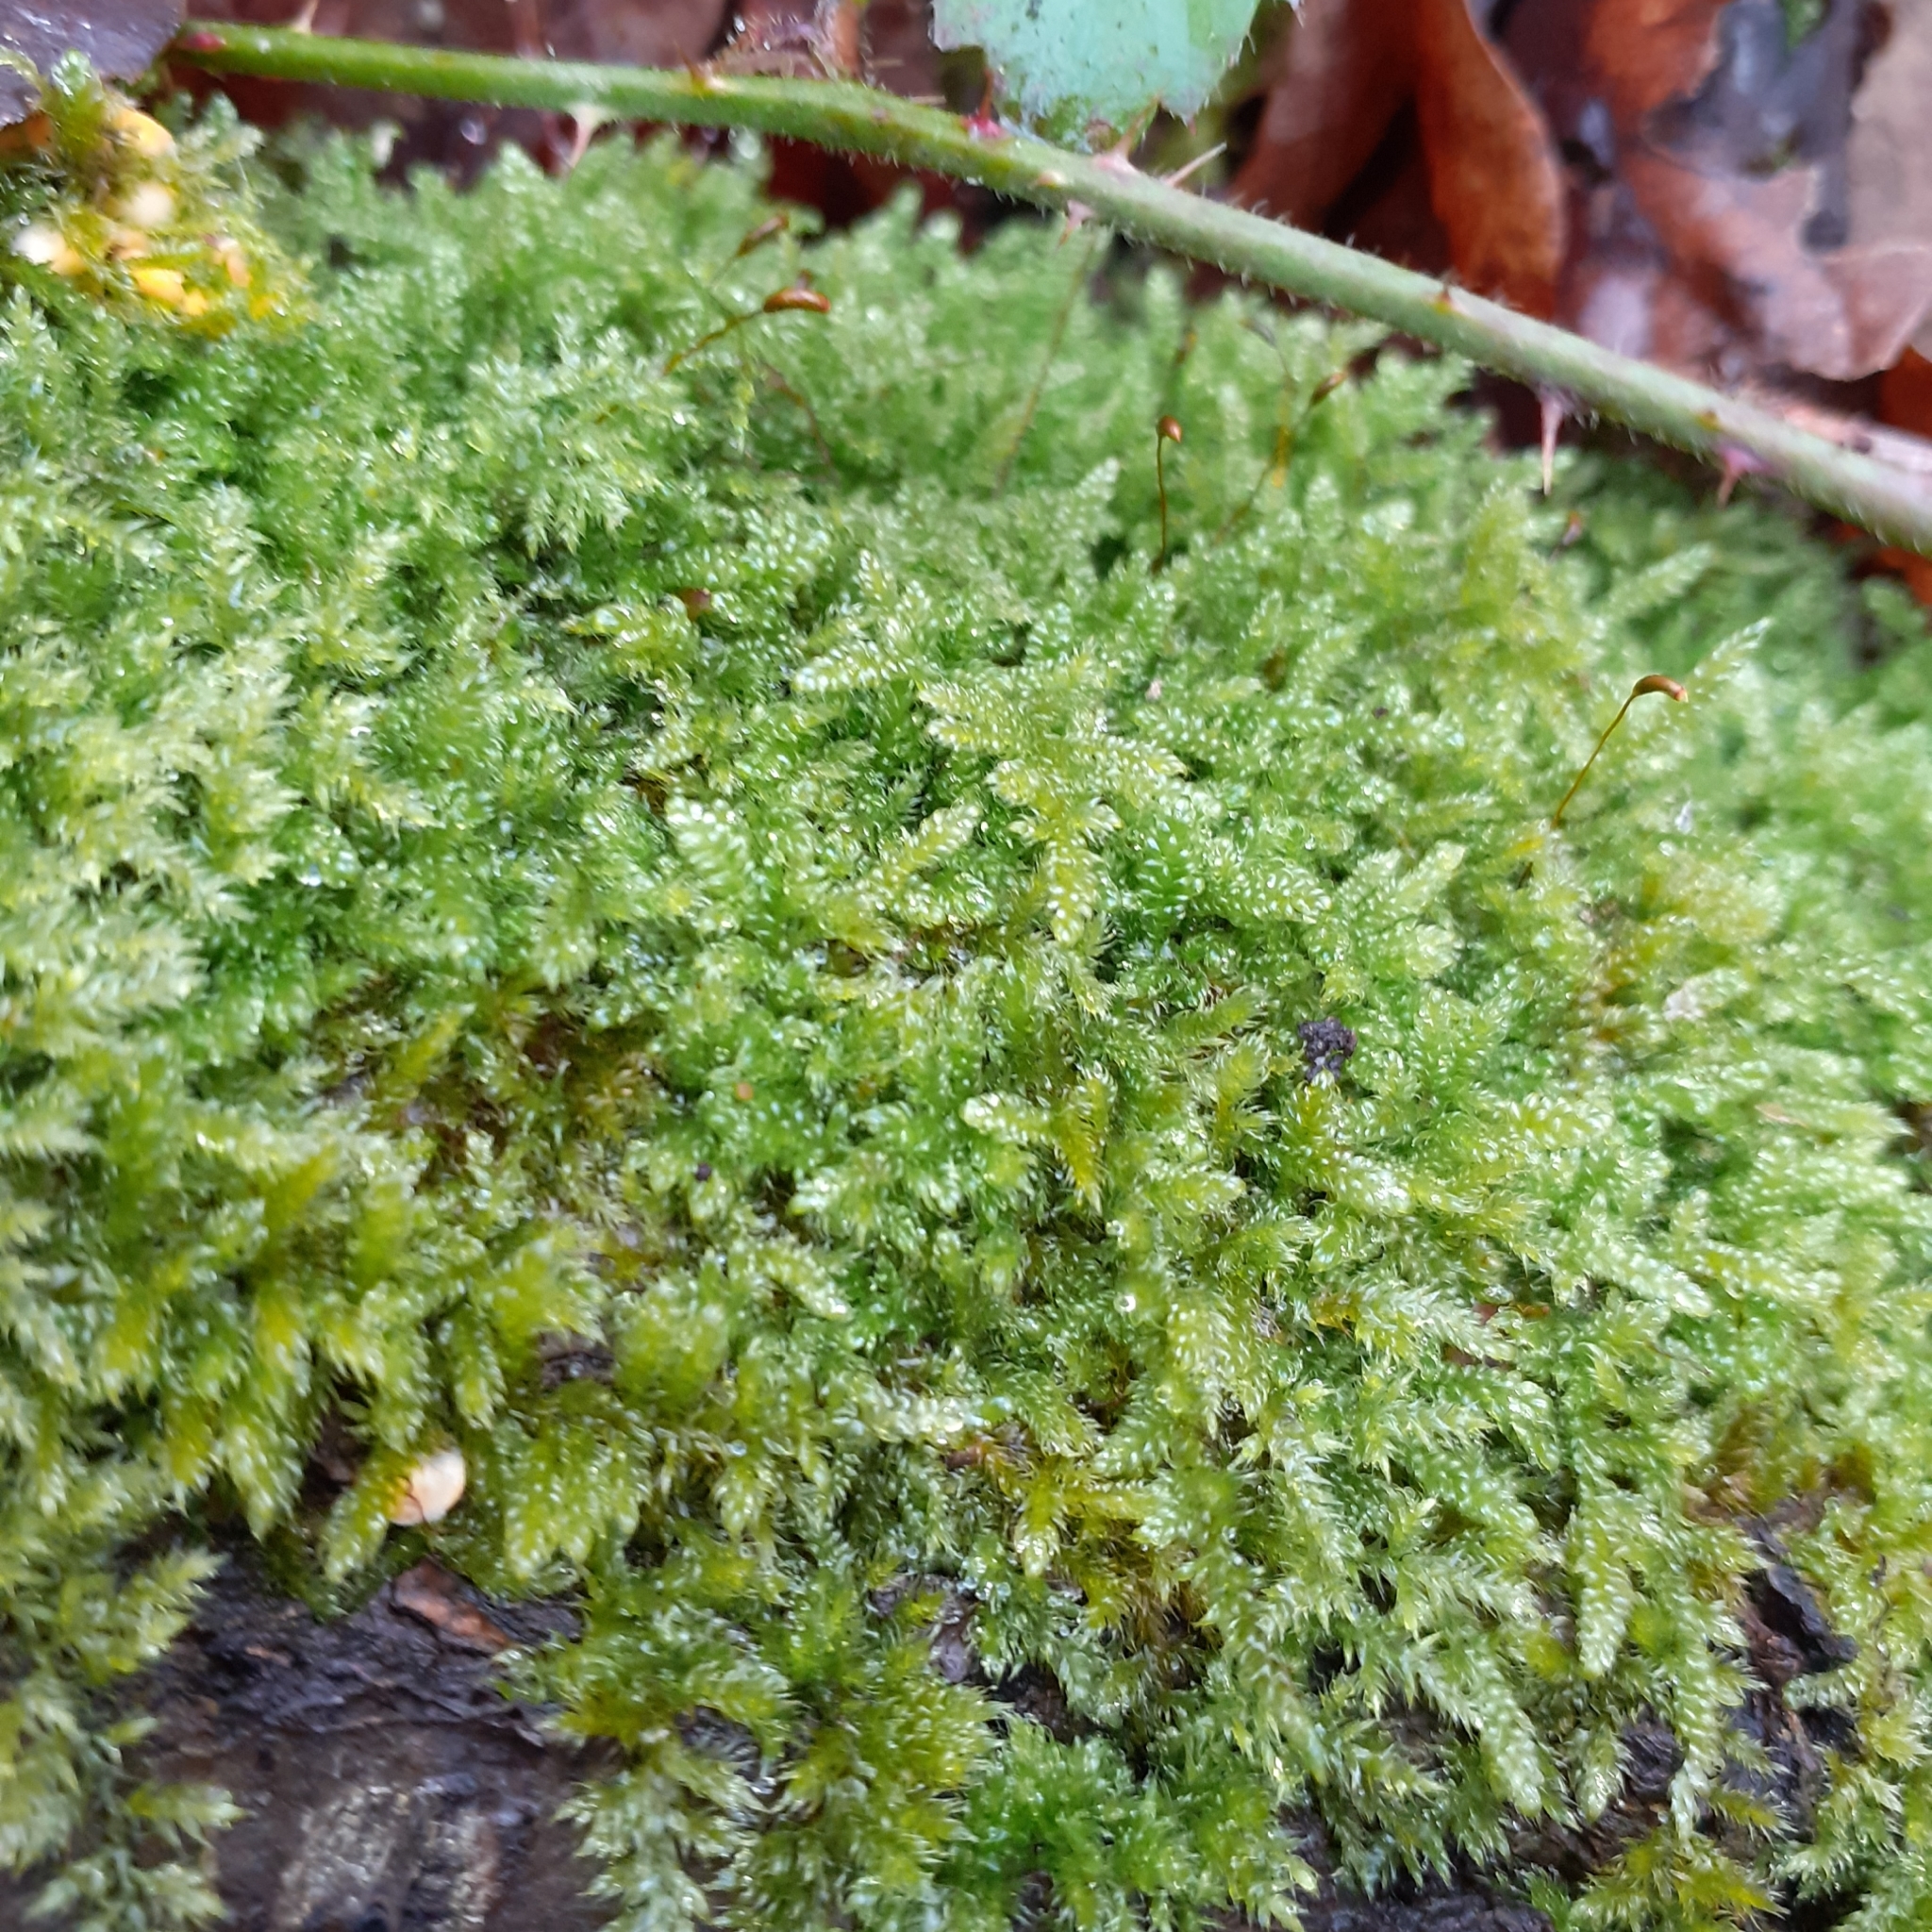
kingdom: Plantae
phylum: Bryophyta
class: Bryopsida
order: Hypnales
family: Hypnaceae
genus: Hypnum
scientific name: Hypnum cupressiforme
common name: Cypress-leaved plait-moss
